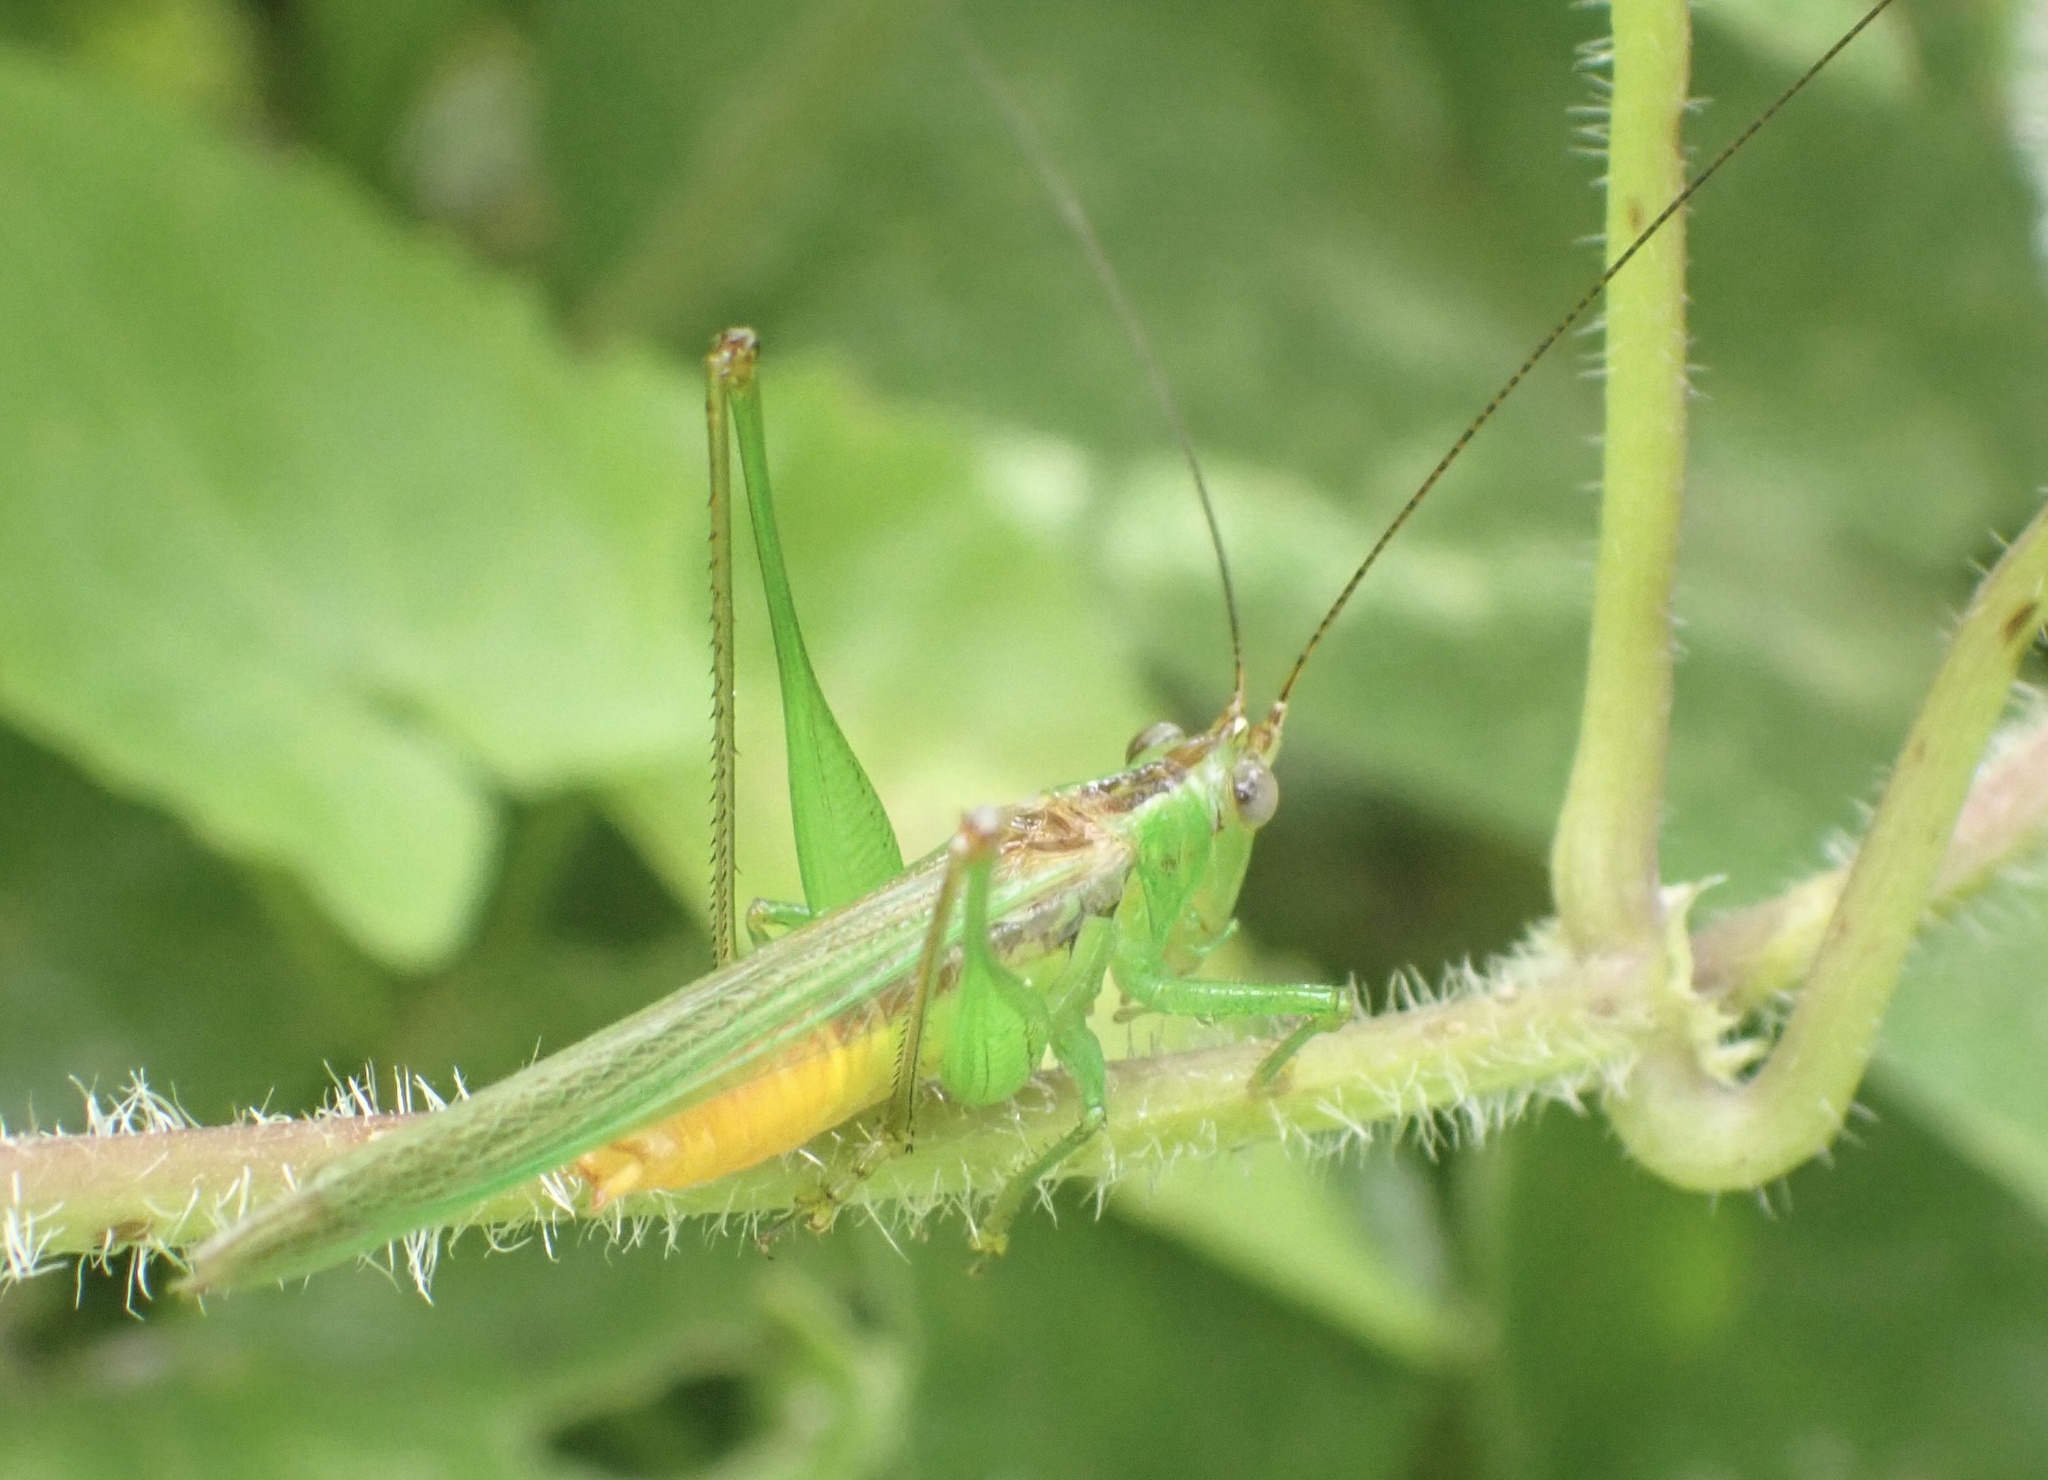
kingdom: Animalia
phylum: Arthropoda
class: Insecta
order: Orthoptera
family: Tettigoniidae
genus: Conocephalus
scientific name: Conocephalus longipennis
